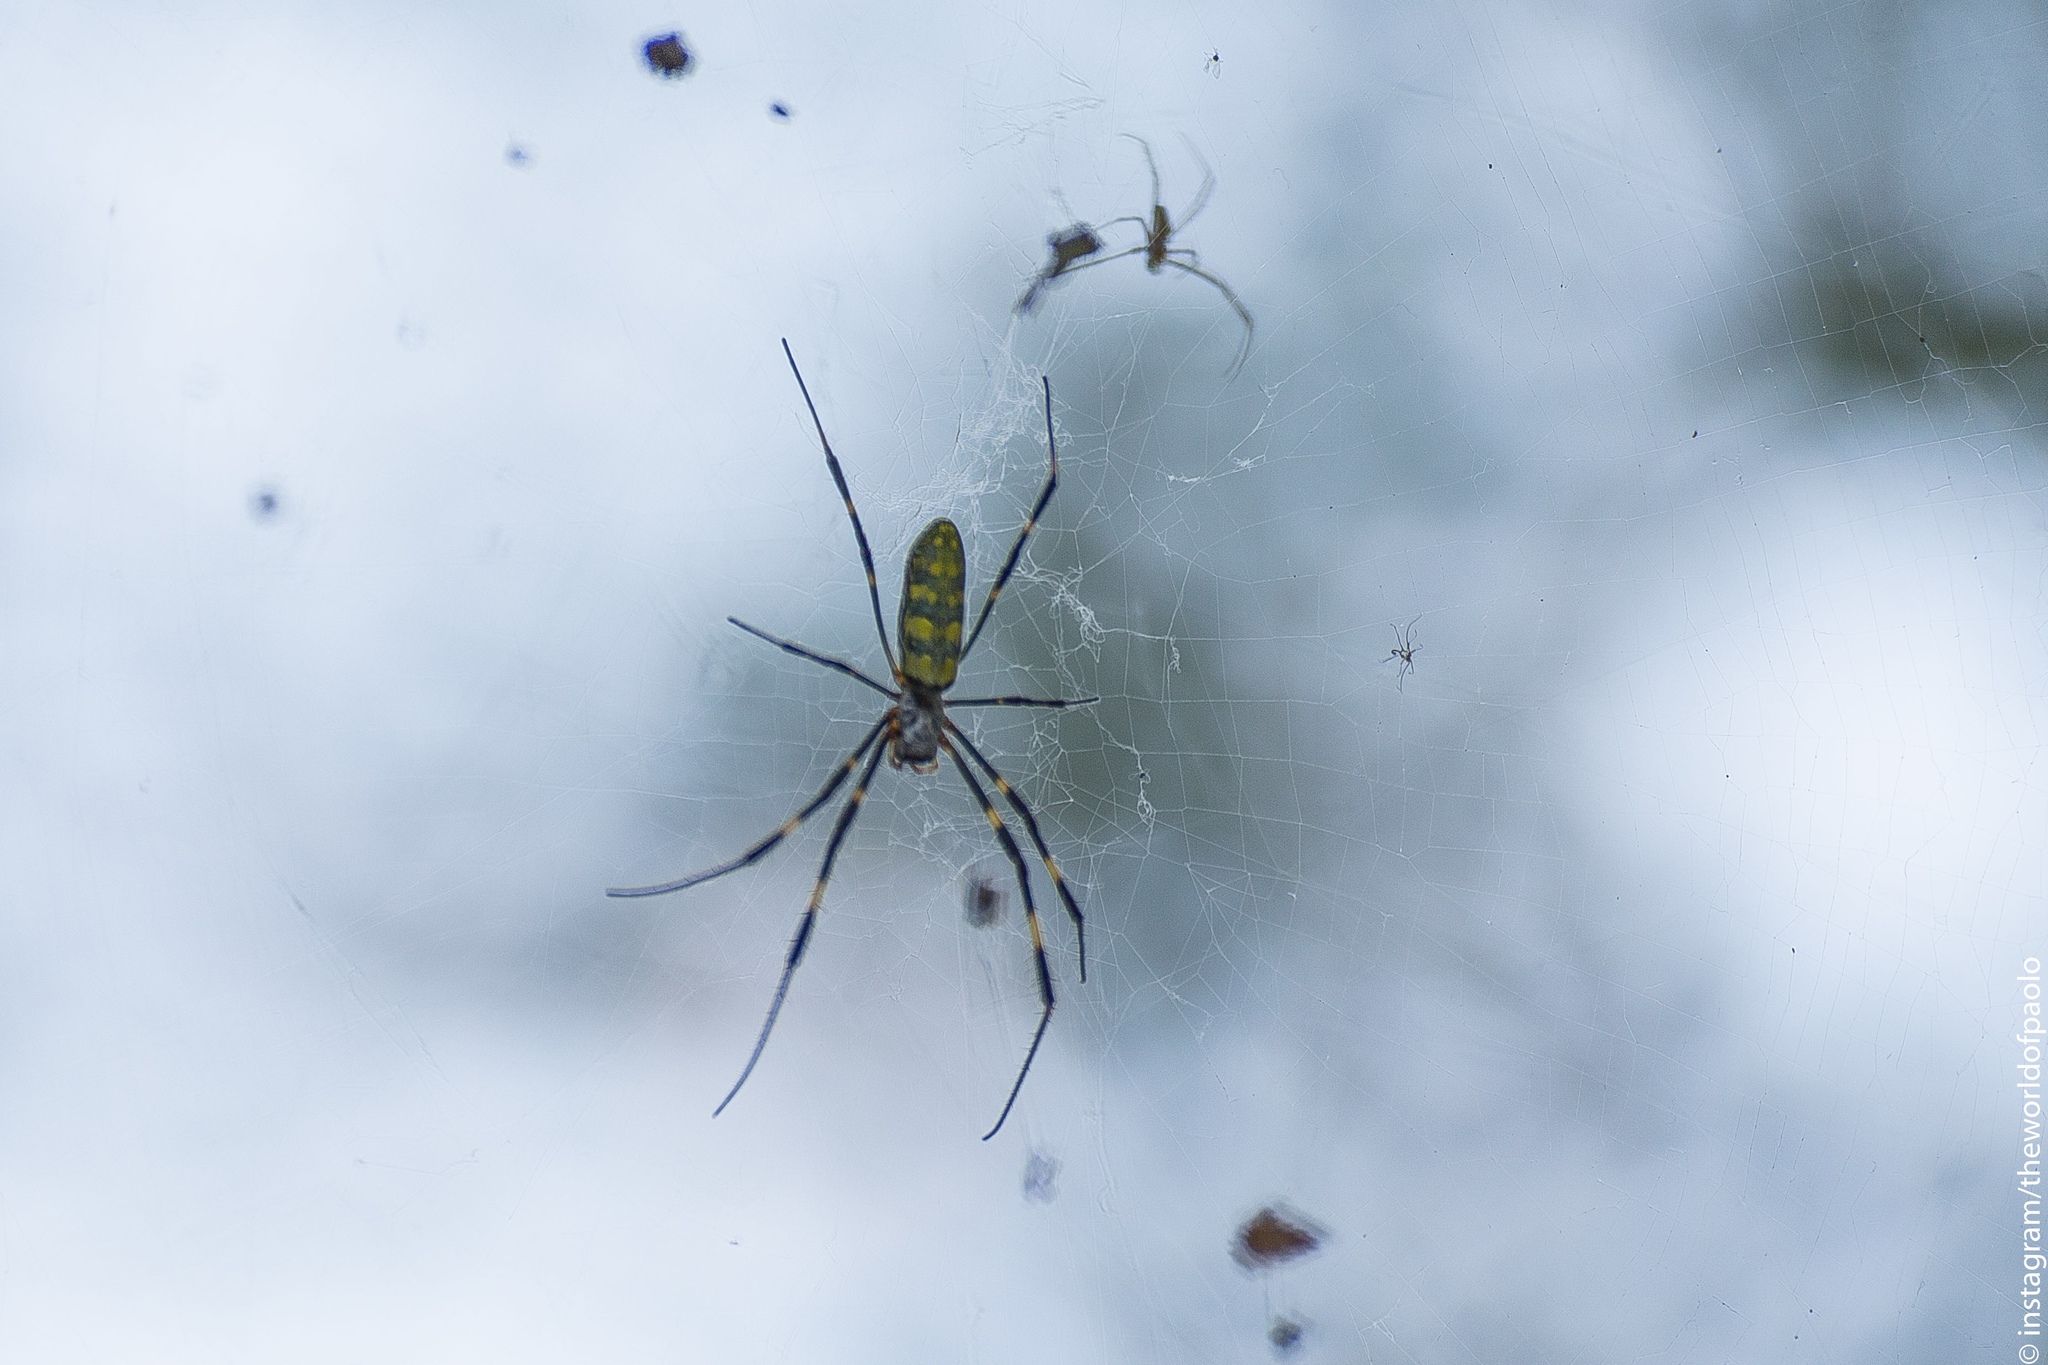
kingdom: Animalia
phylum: Arthropoda
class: Arachnida
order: Araneae
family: Araneidae
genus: Trichonephila
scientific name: Trichonephila clavata
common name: Jorō spider
